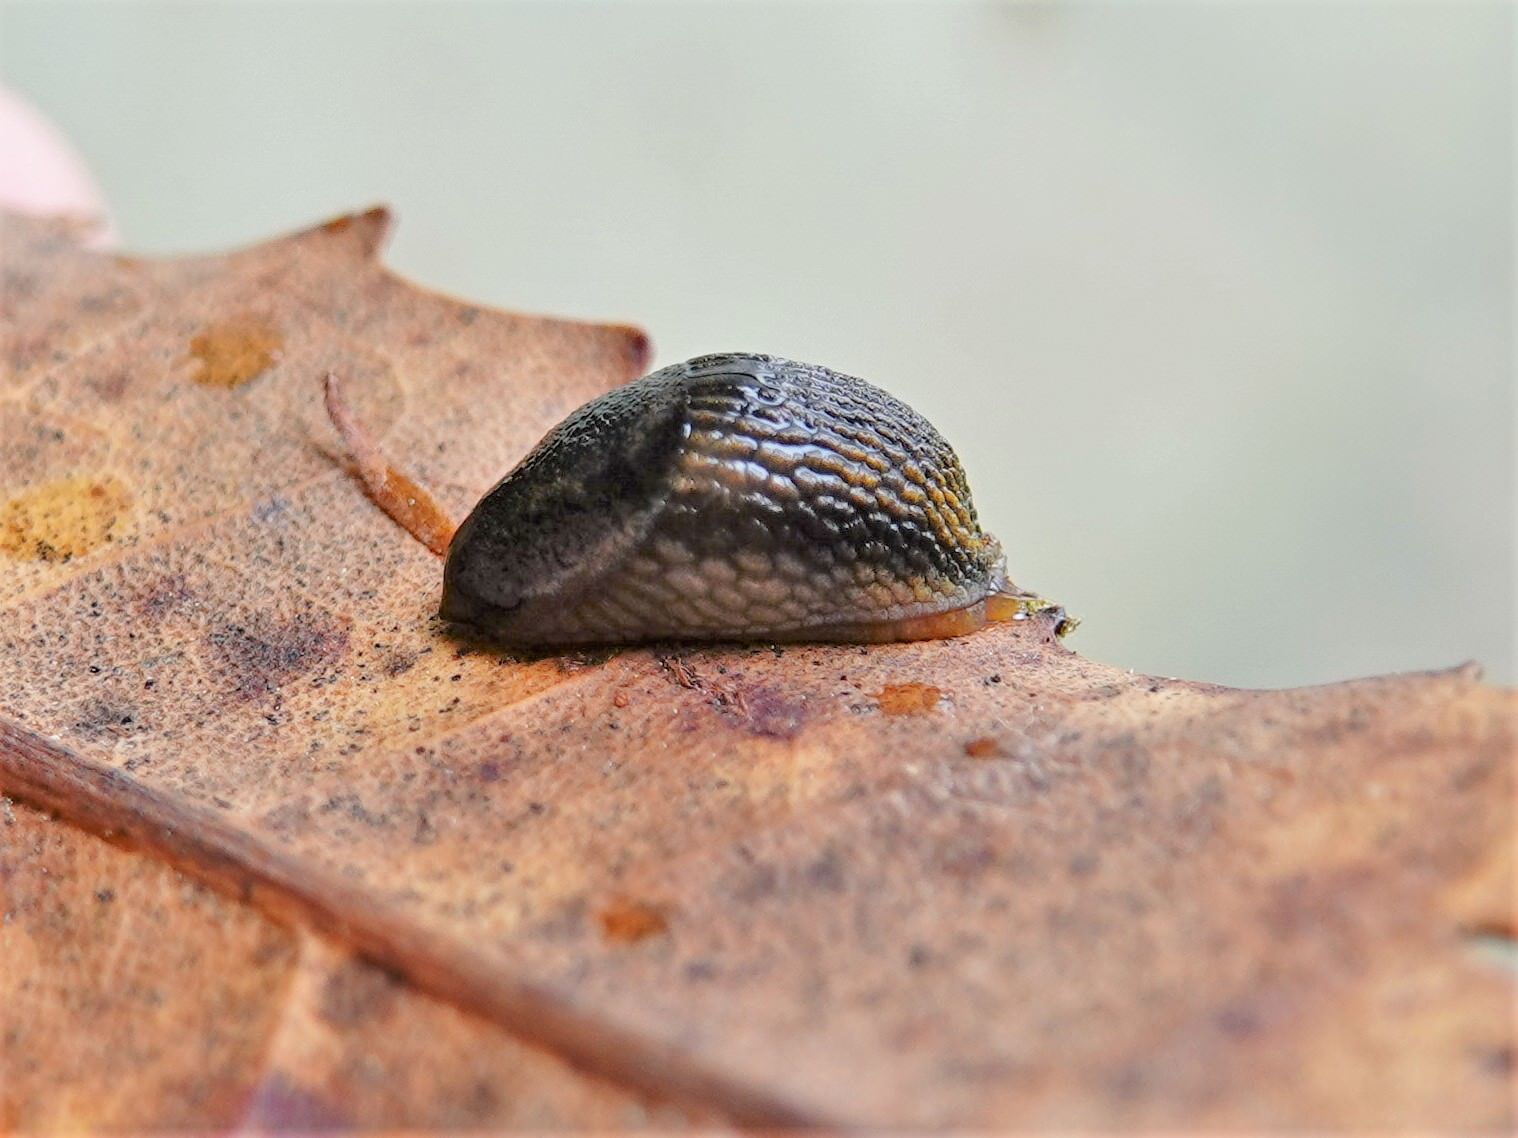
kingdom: Animalia
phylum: Mollusca
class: Gastropoda
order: Stylommatophora
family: Arionidae
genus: Kobeltia
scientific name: Kobeltia
